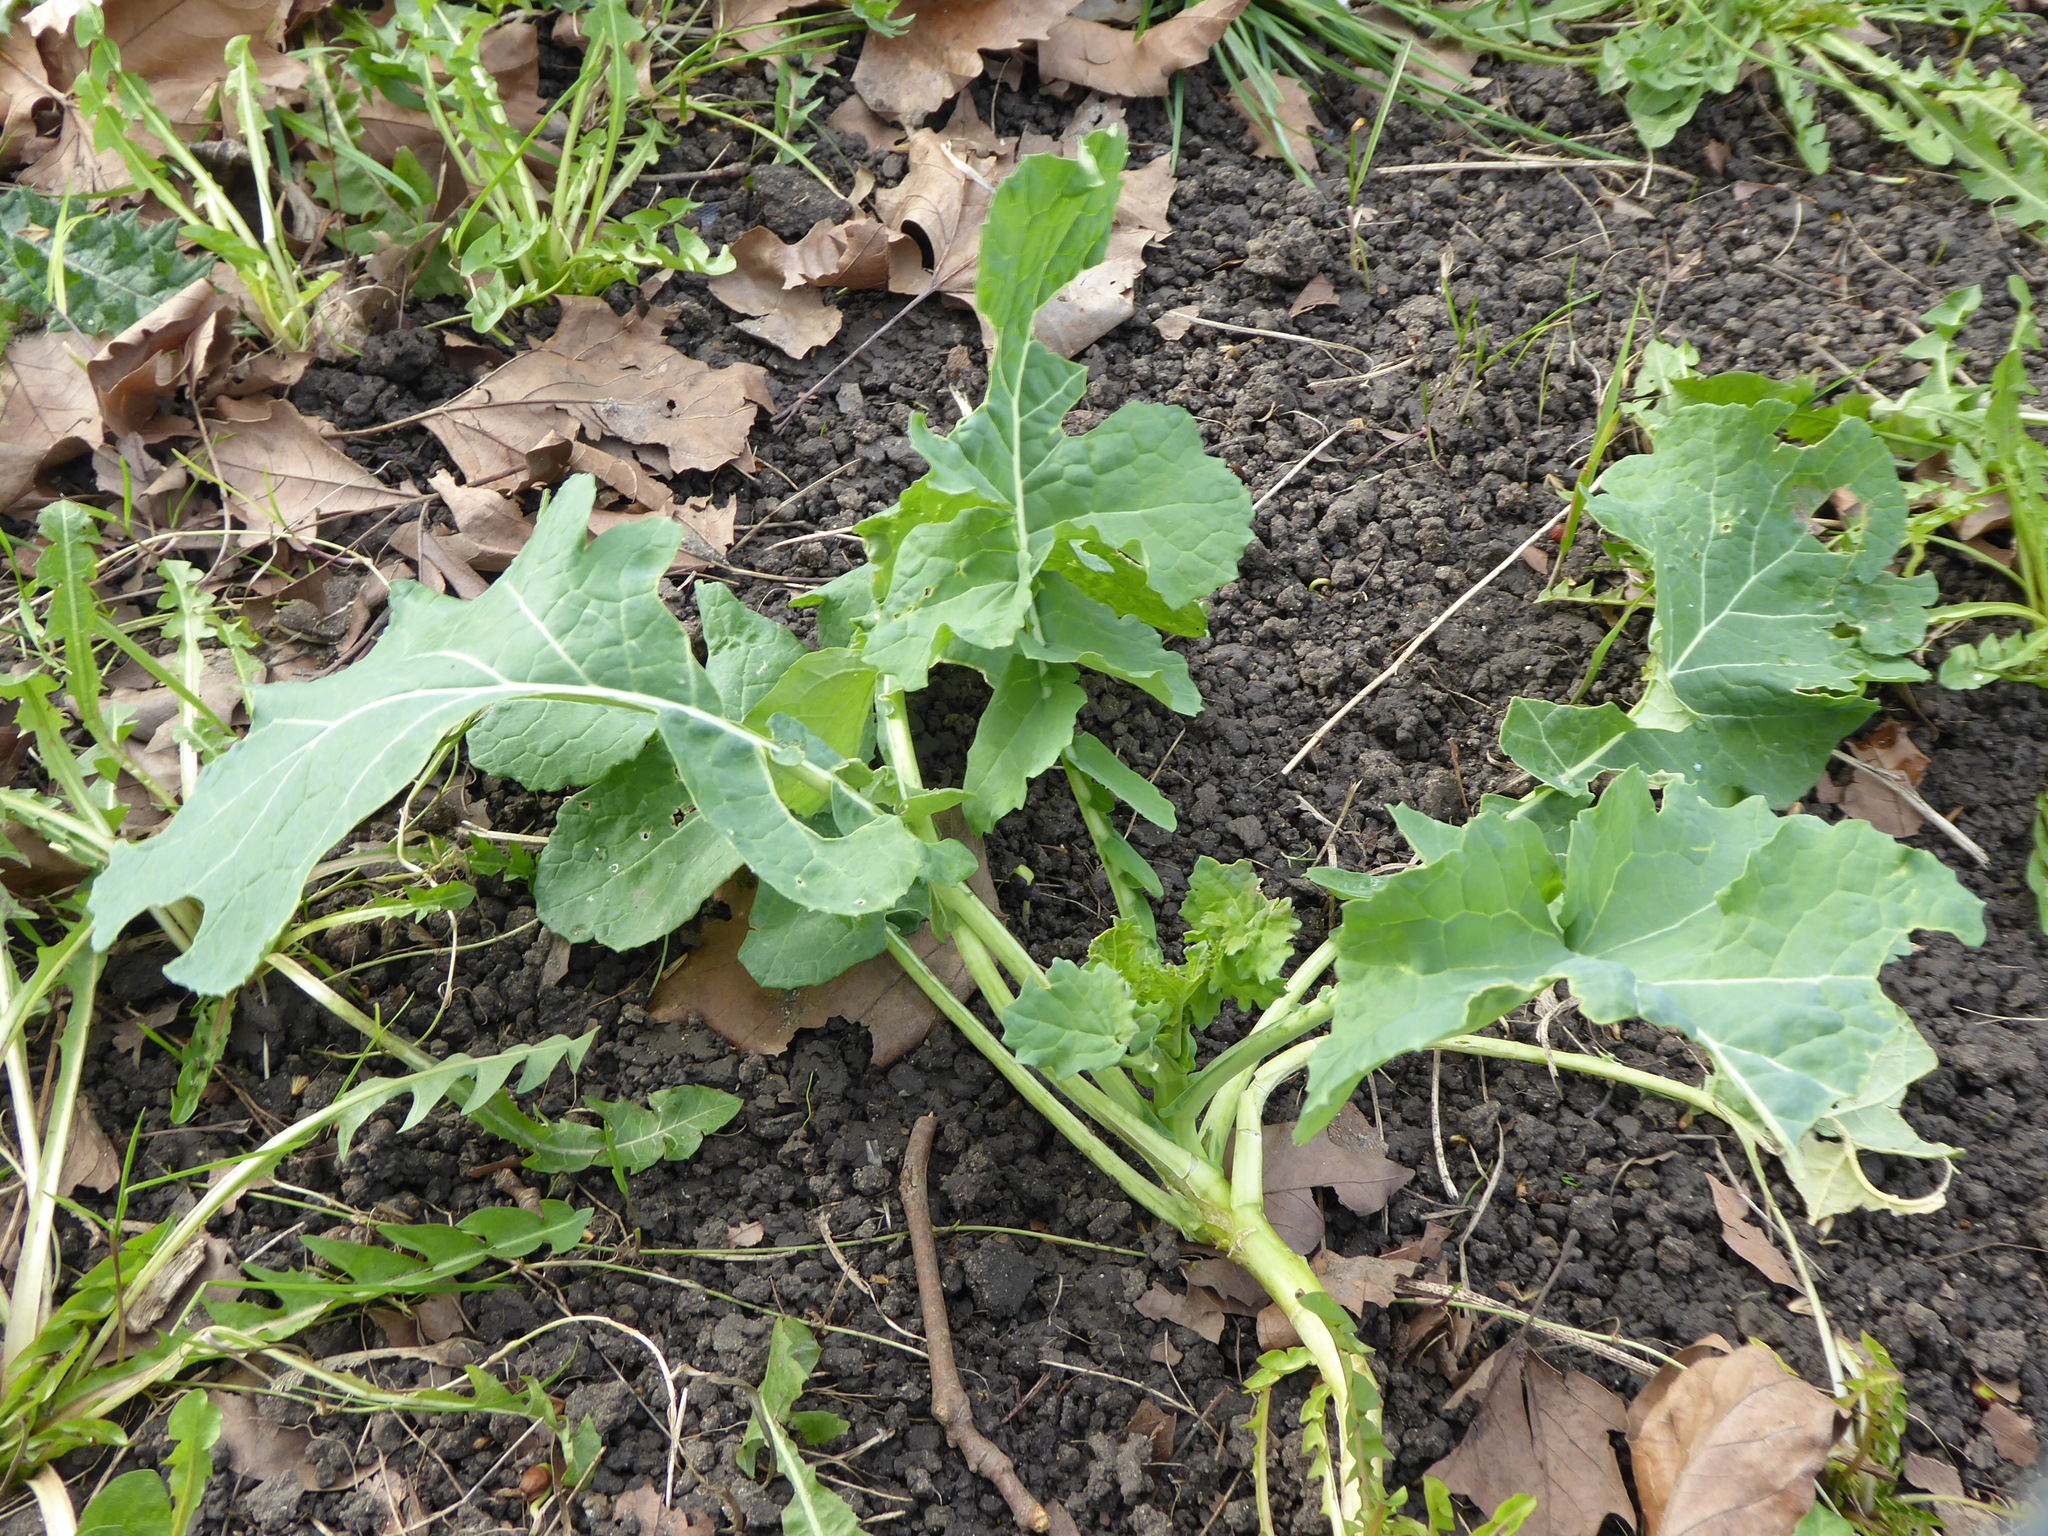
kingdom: Plantae
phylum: Tracheophyta
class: Magnoliopsida
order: Brassicales
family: Brassicaceae
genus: Brassica
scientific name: Brassica napus
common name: Rape
